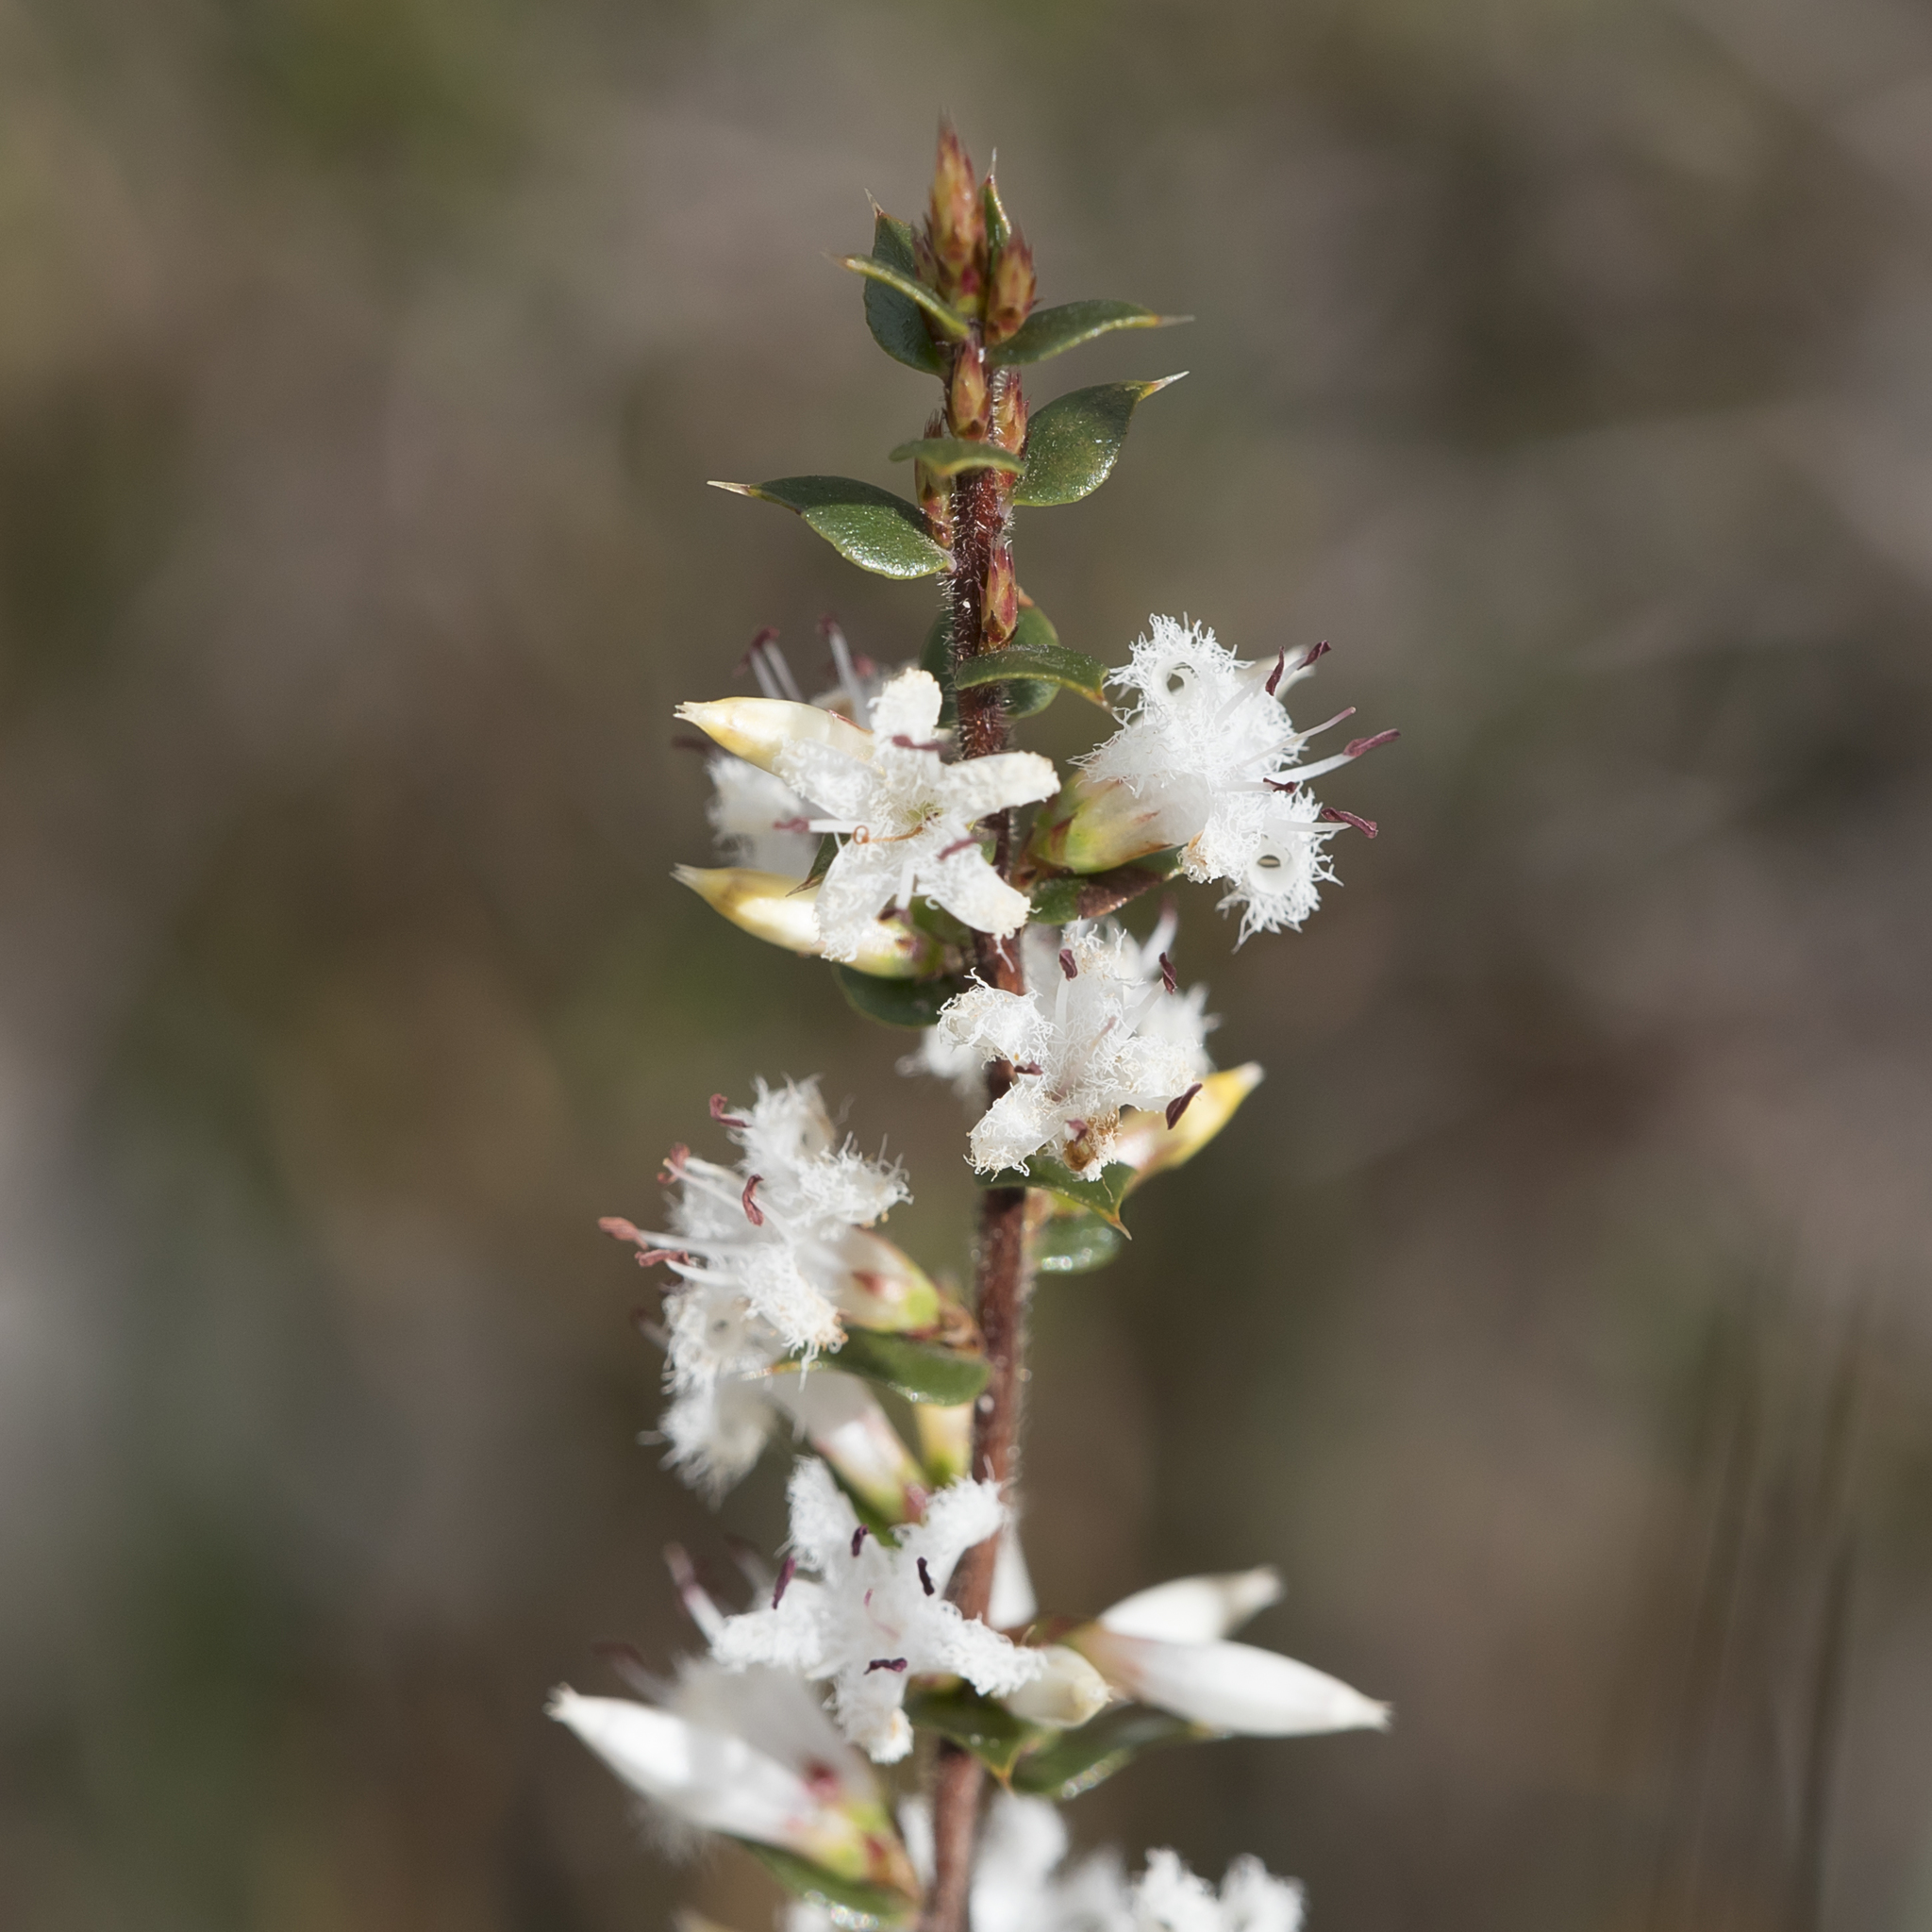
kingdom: Plantae
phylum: Tracheophyta
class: Magnoliopsida
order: Ericales
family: Ericaceae
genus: Styphelia
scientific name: Styphelia exarrhena
